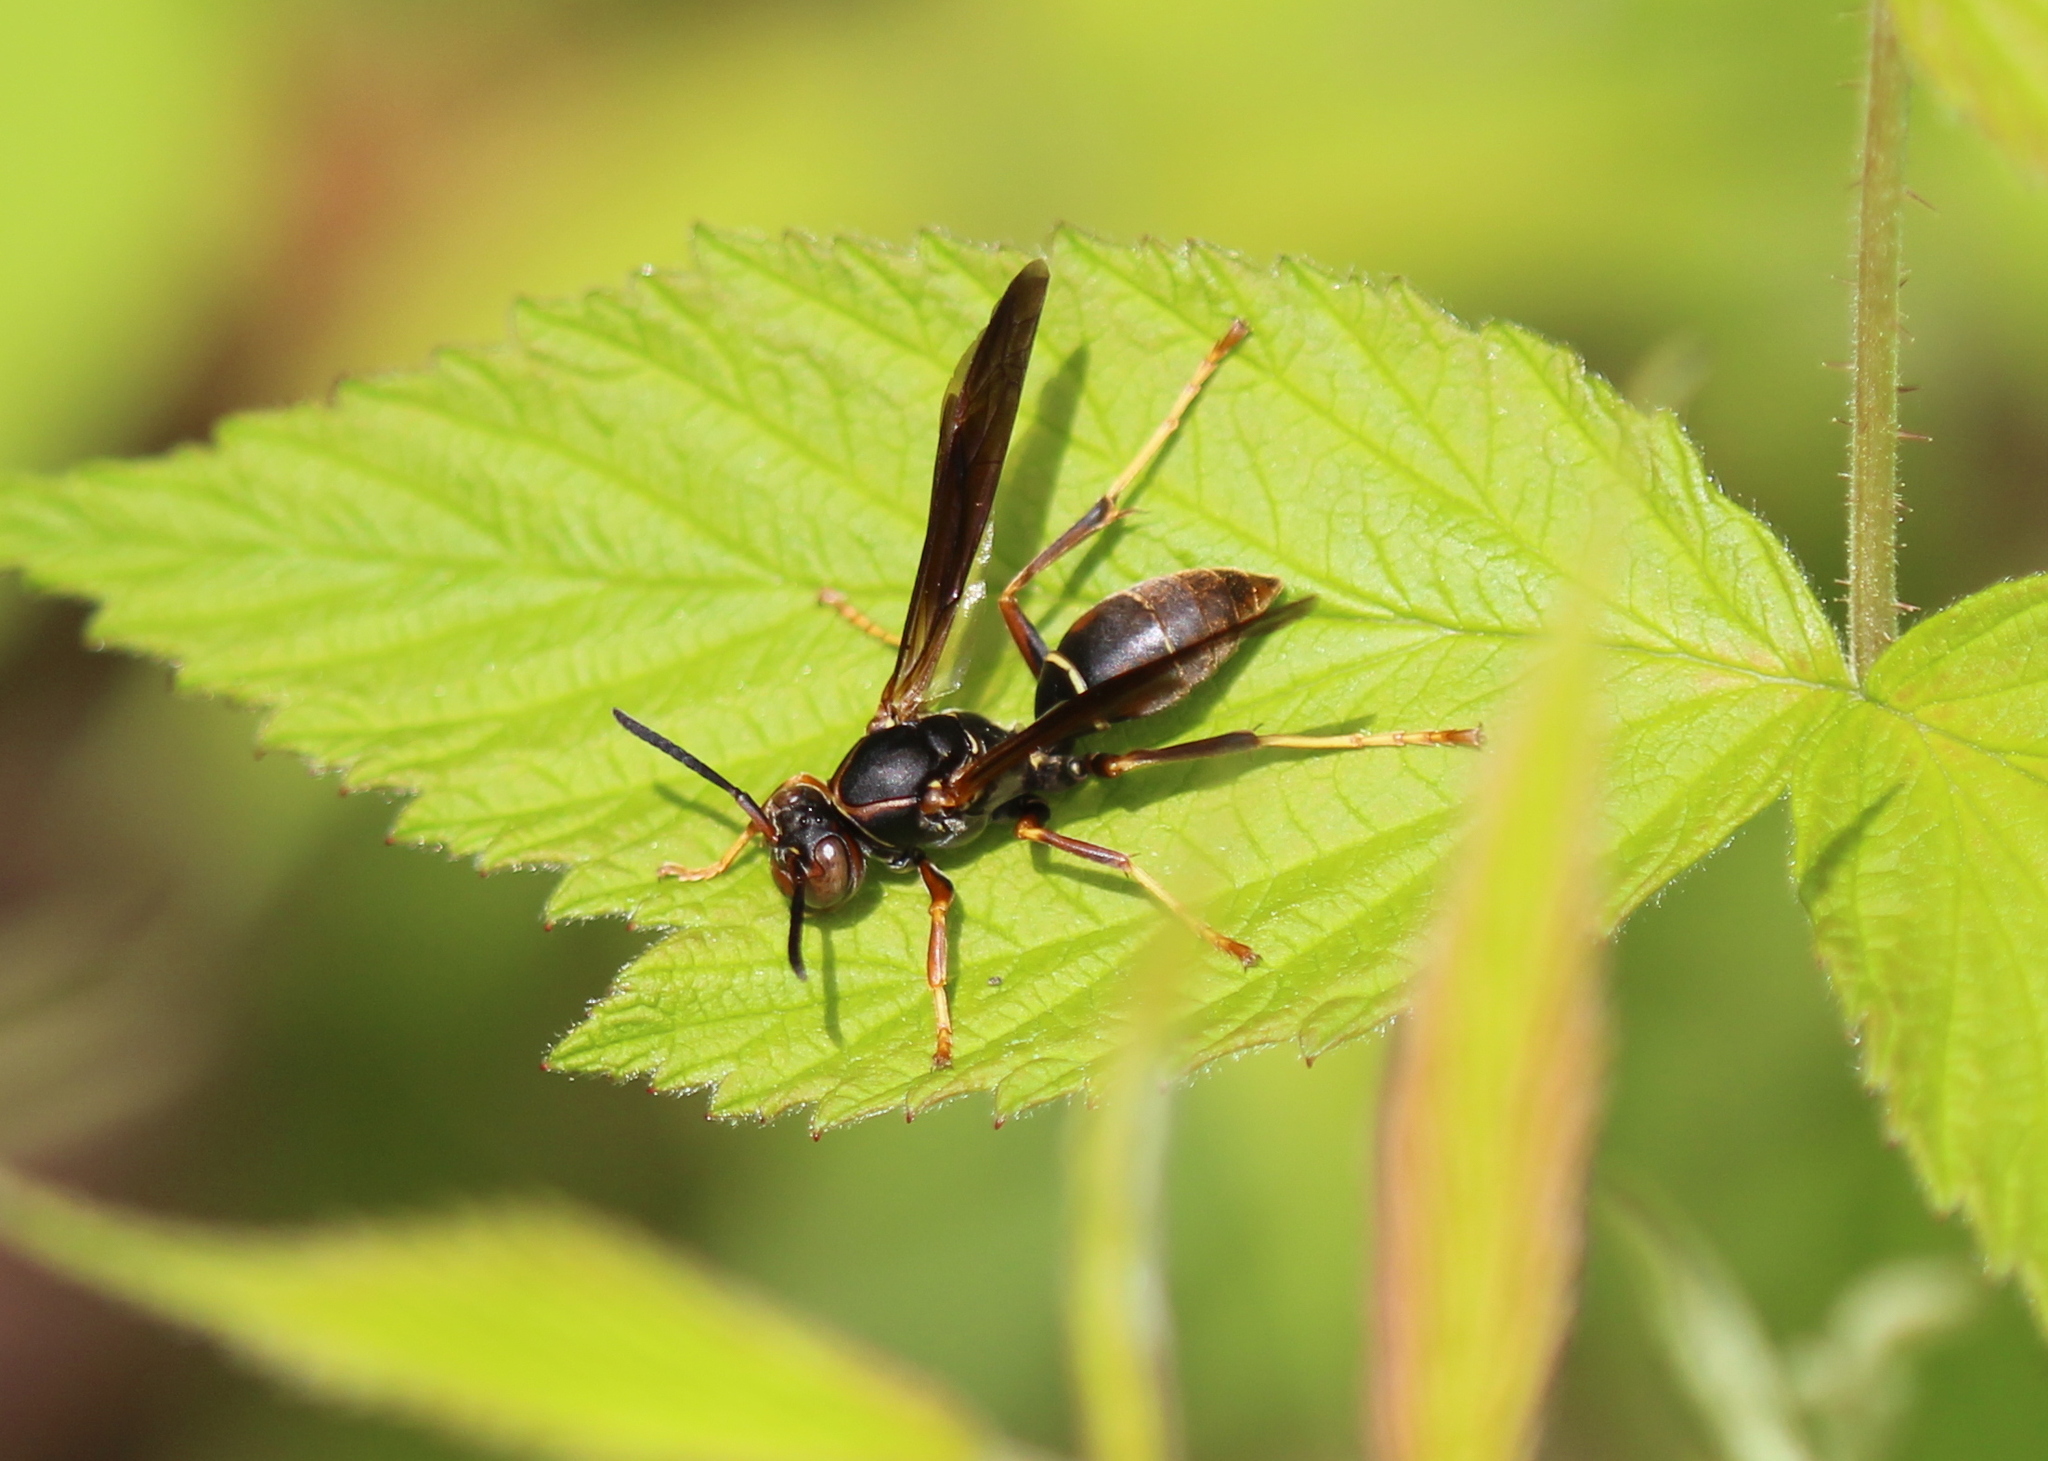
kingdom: Animalia
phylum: Arthropoda
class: Insecta
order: Hymenoptera
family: Eumenidae
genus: Polistes
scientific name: Polistes fuscatus
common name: Dark paper wasp
